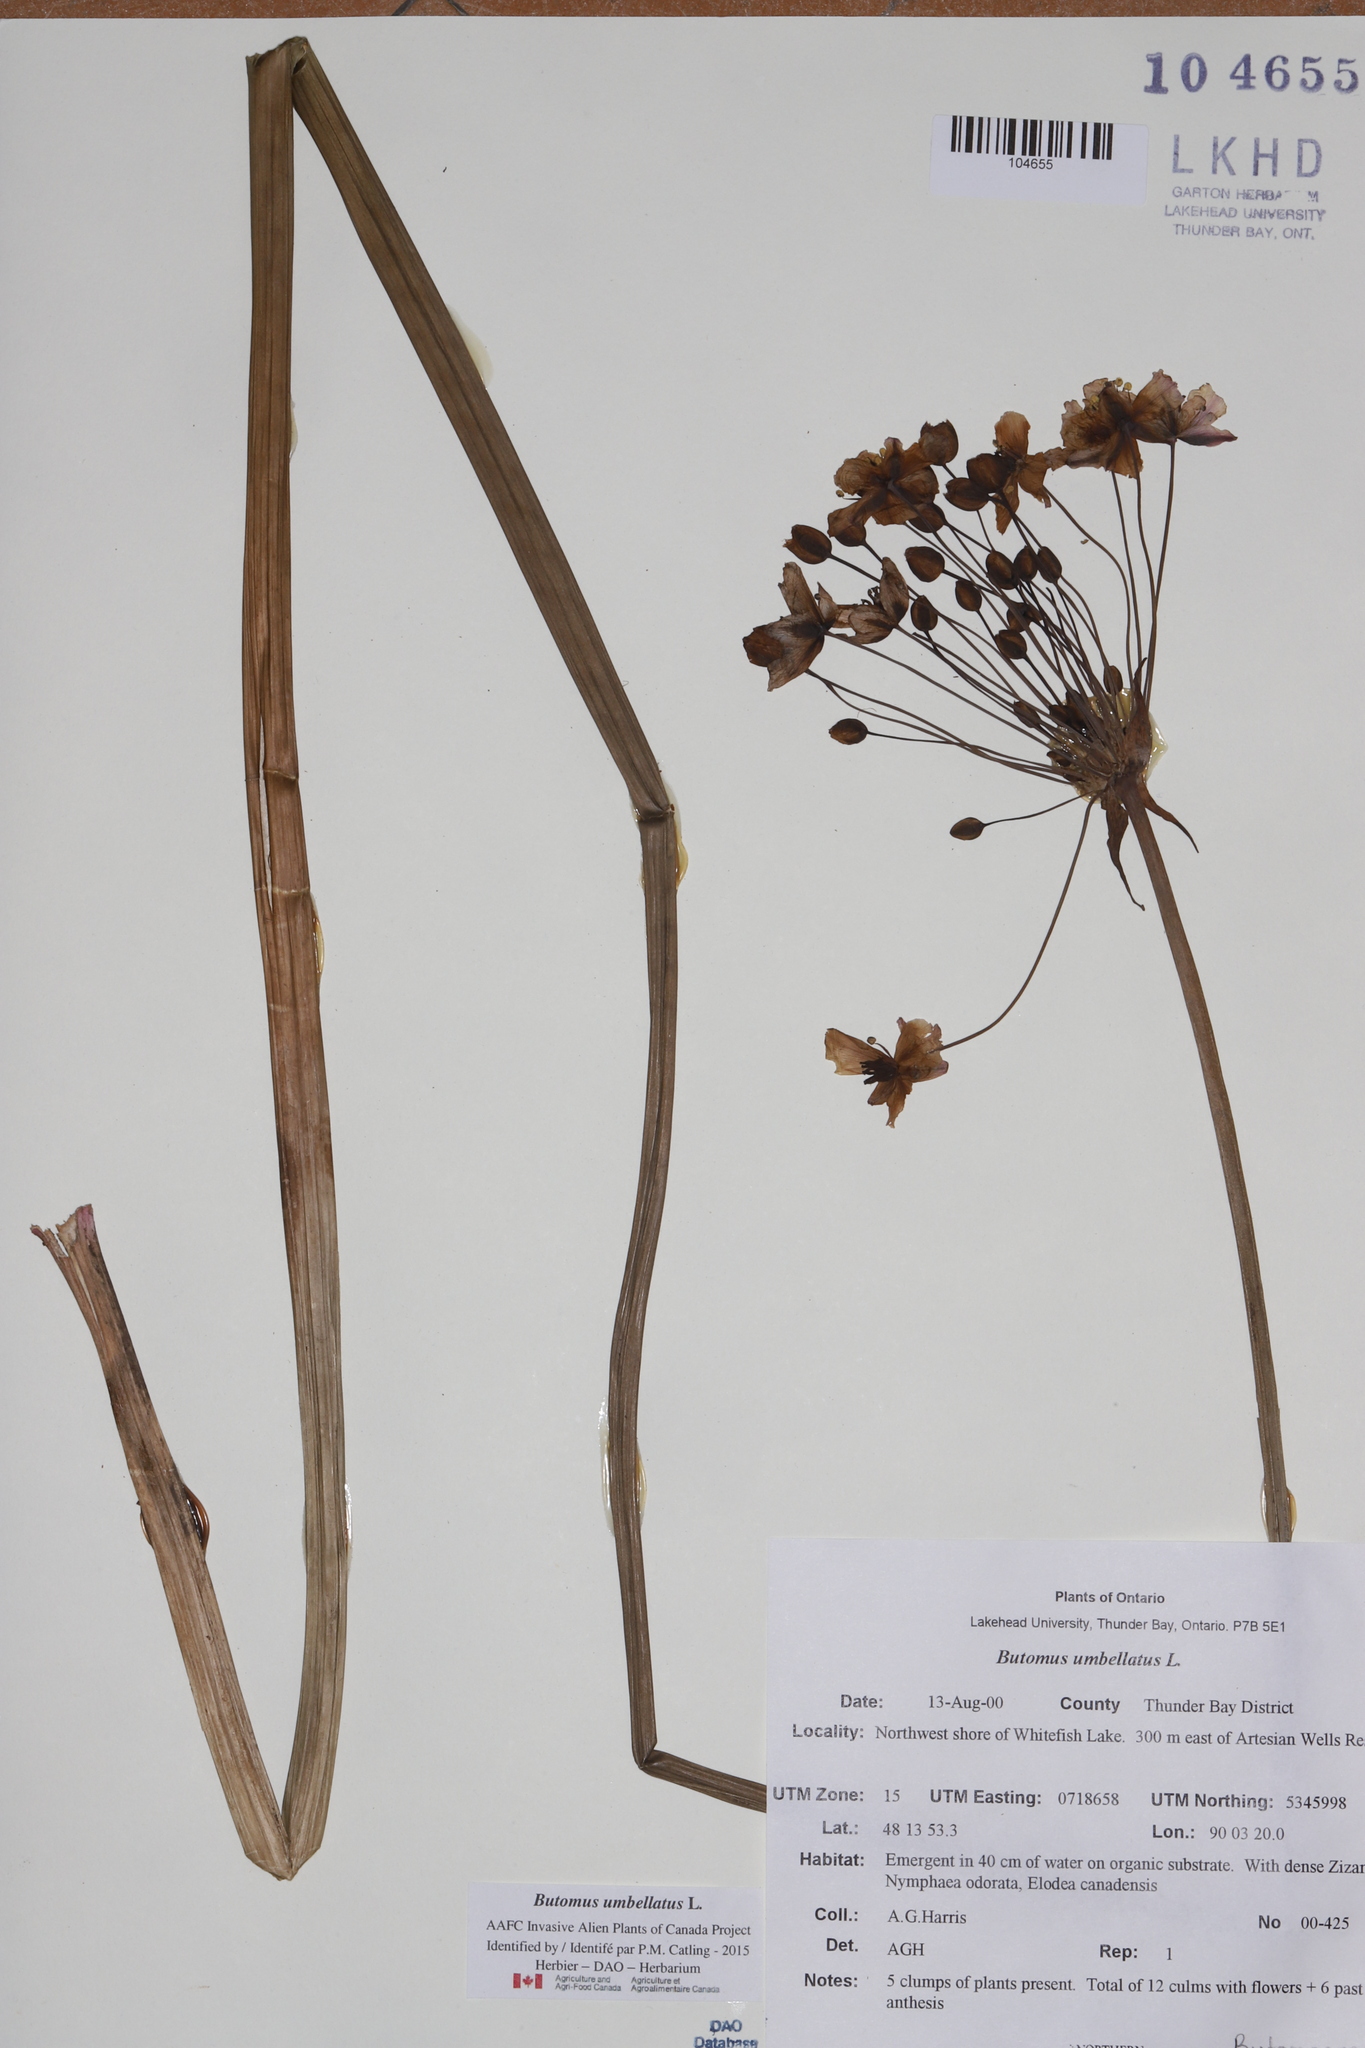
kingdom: Plantae
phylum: Tracheophyta
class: Liliopsida
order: Alismatales
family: Butomaceae
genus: Butomus
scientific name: Butomus umbellatus
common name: Flowering-rush
